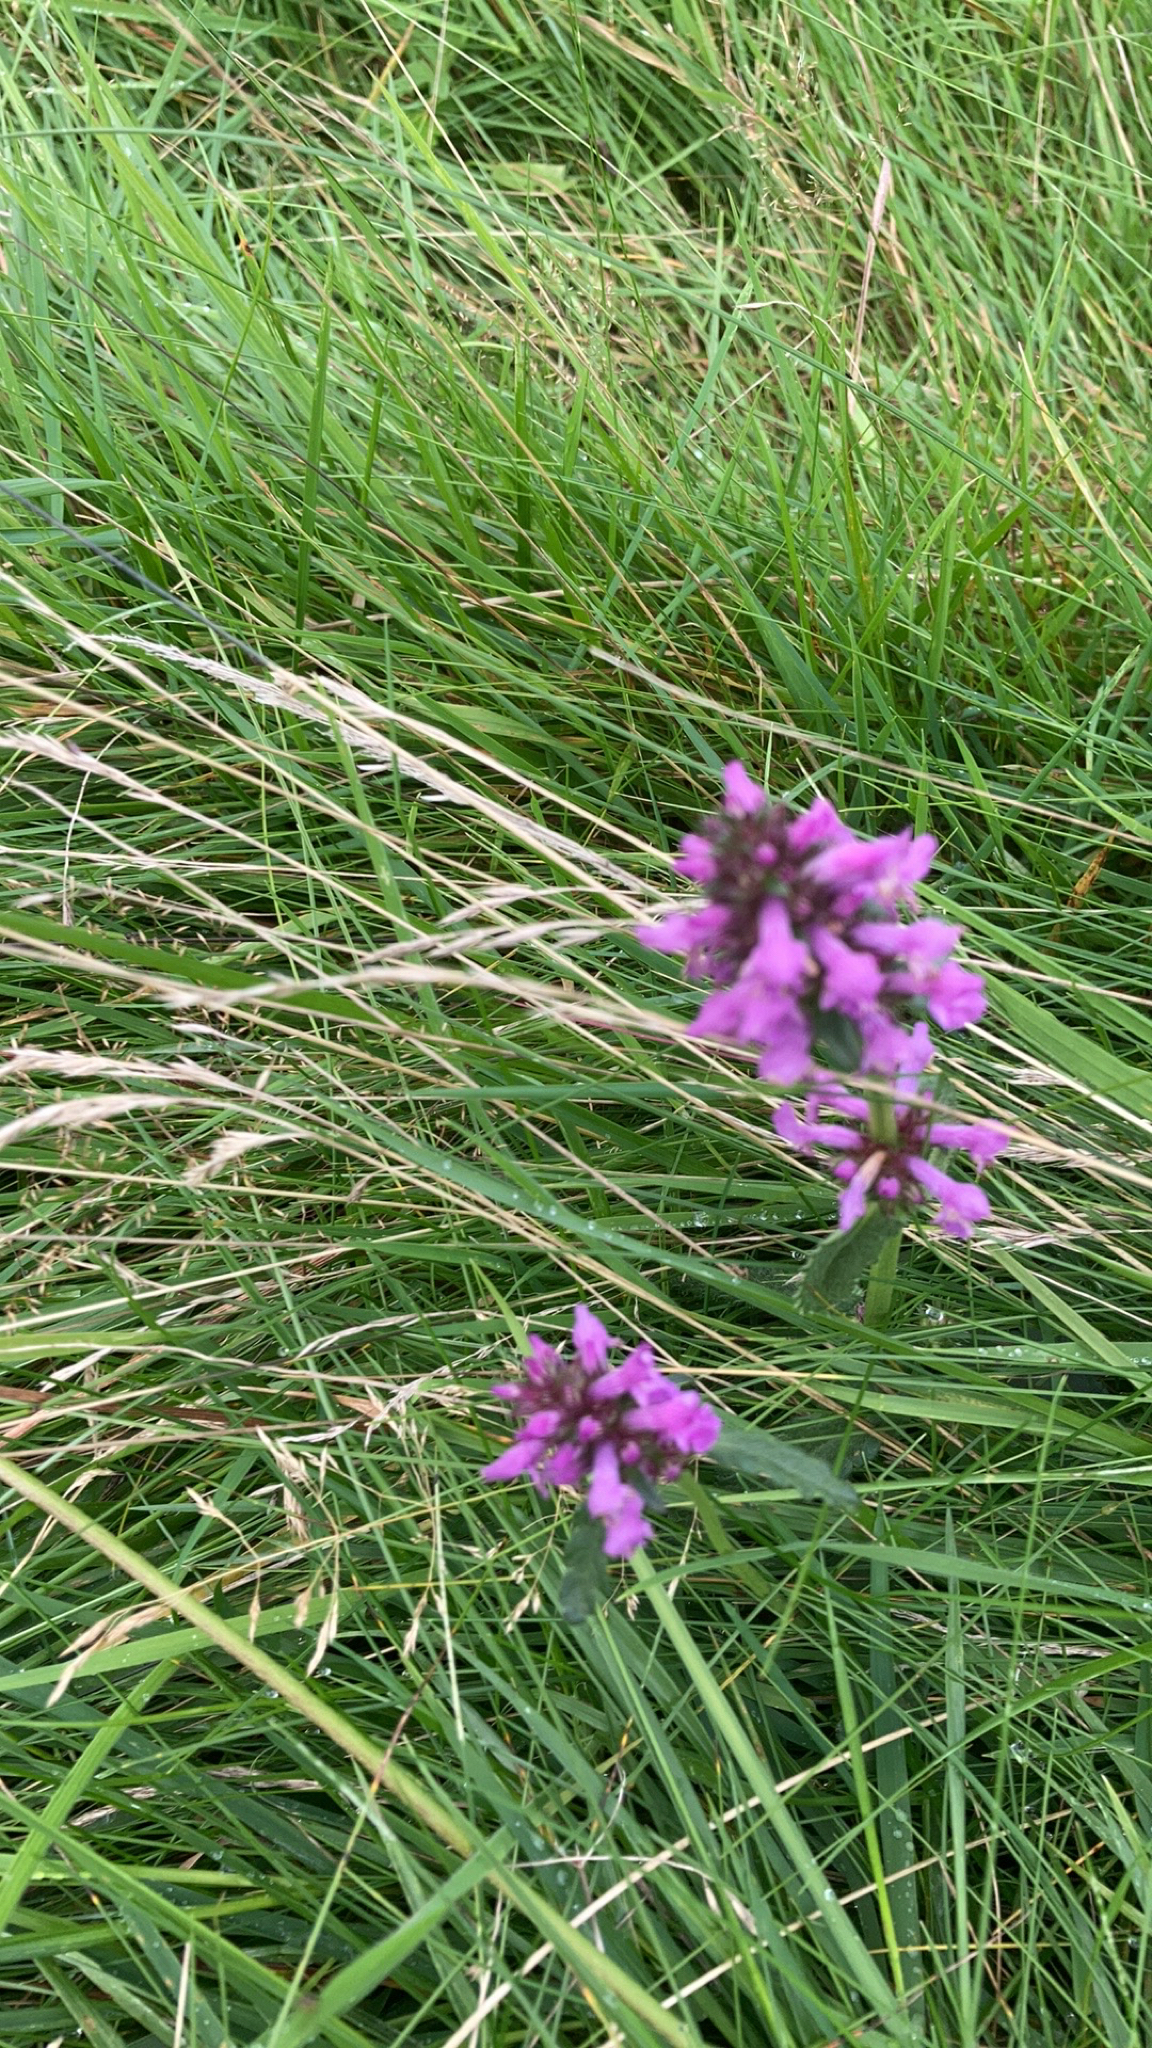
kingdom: Plantae
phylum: Tracheophyta
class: Magnoliopsida
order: Lamiales
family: Lamiaceae
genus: Betonica
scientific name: Betonica officinalis
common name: Bishop's-wort
